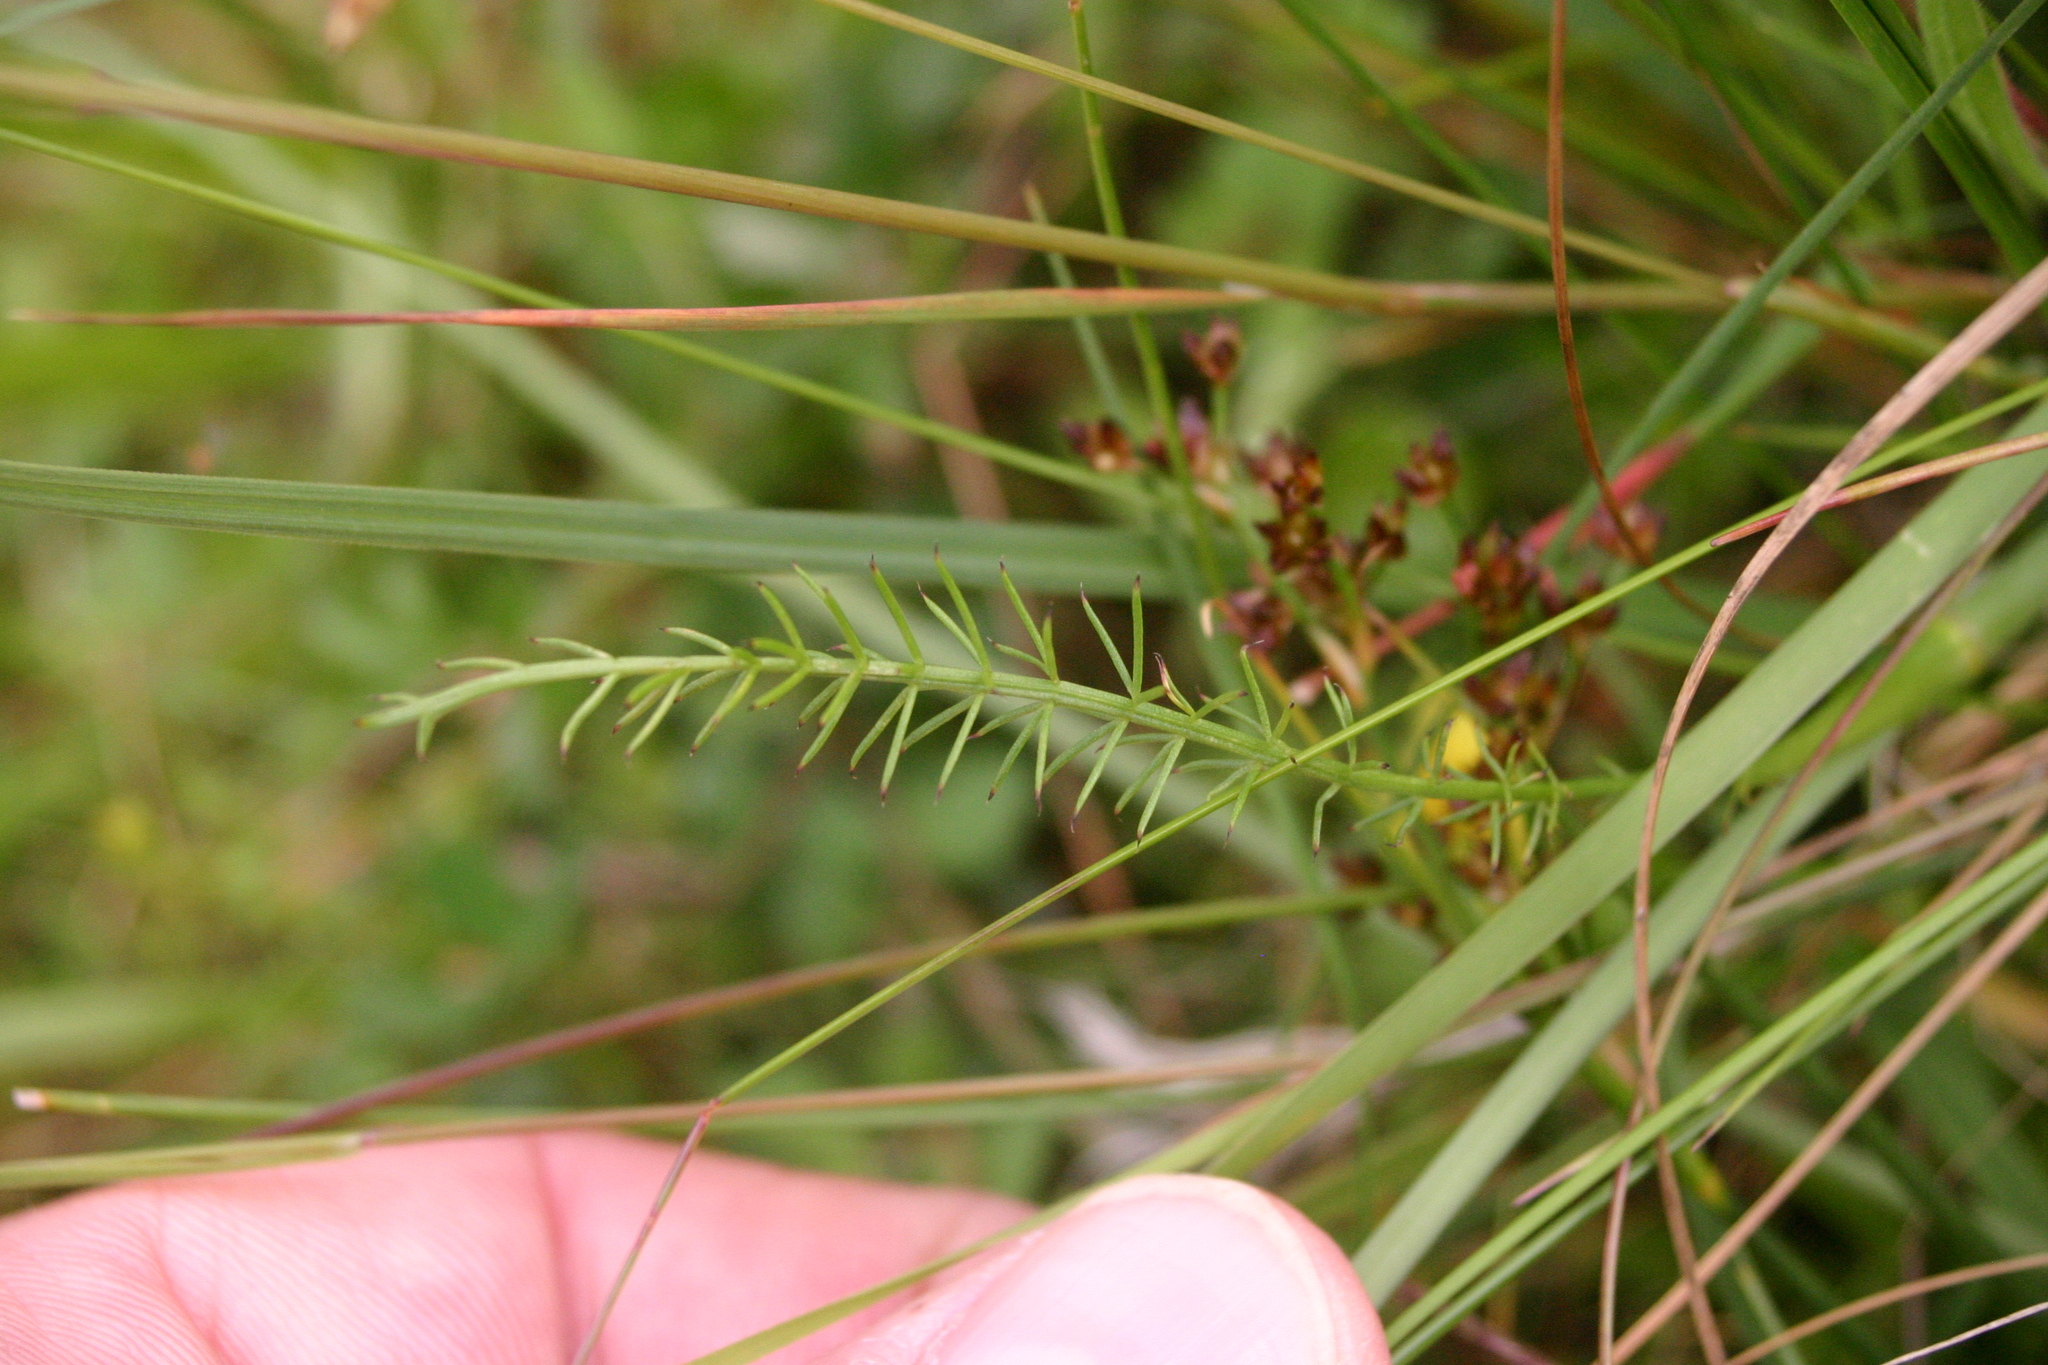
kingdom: Plantae
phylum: Tracheophyta
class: Magnoliopsida
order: Apiales
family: Apiaceae
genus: Trocdaris
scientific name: Trocdaris verticillatum
